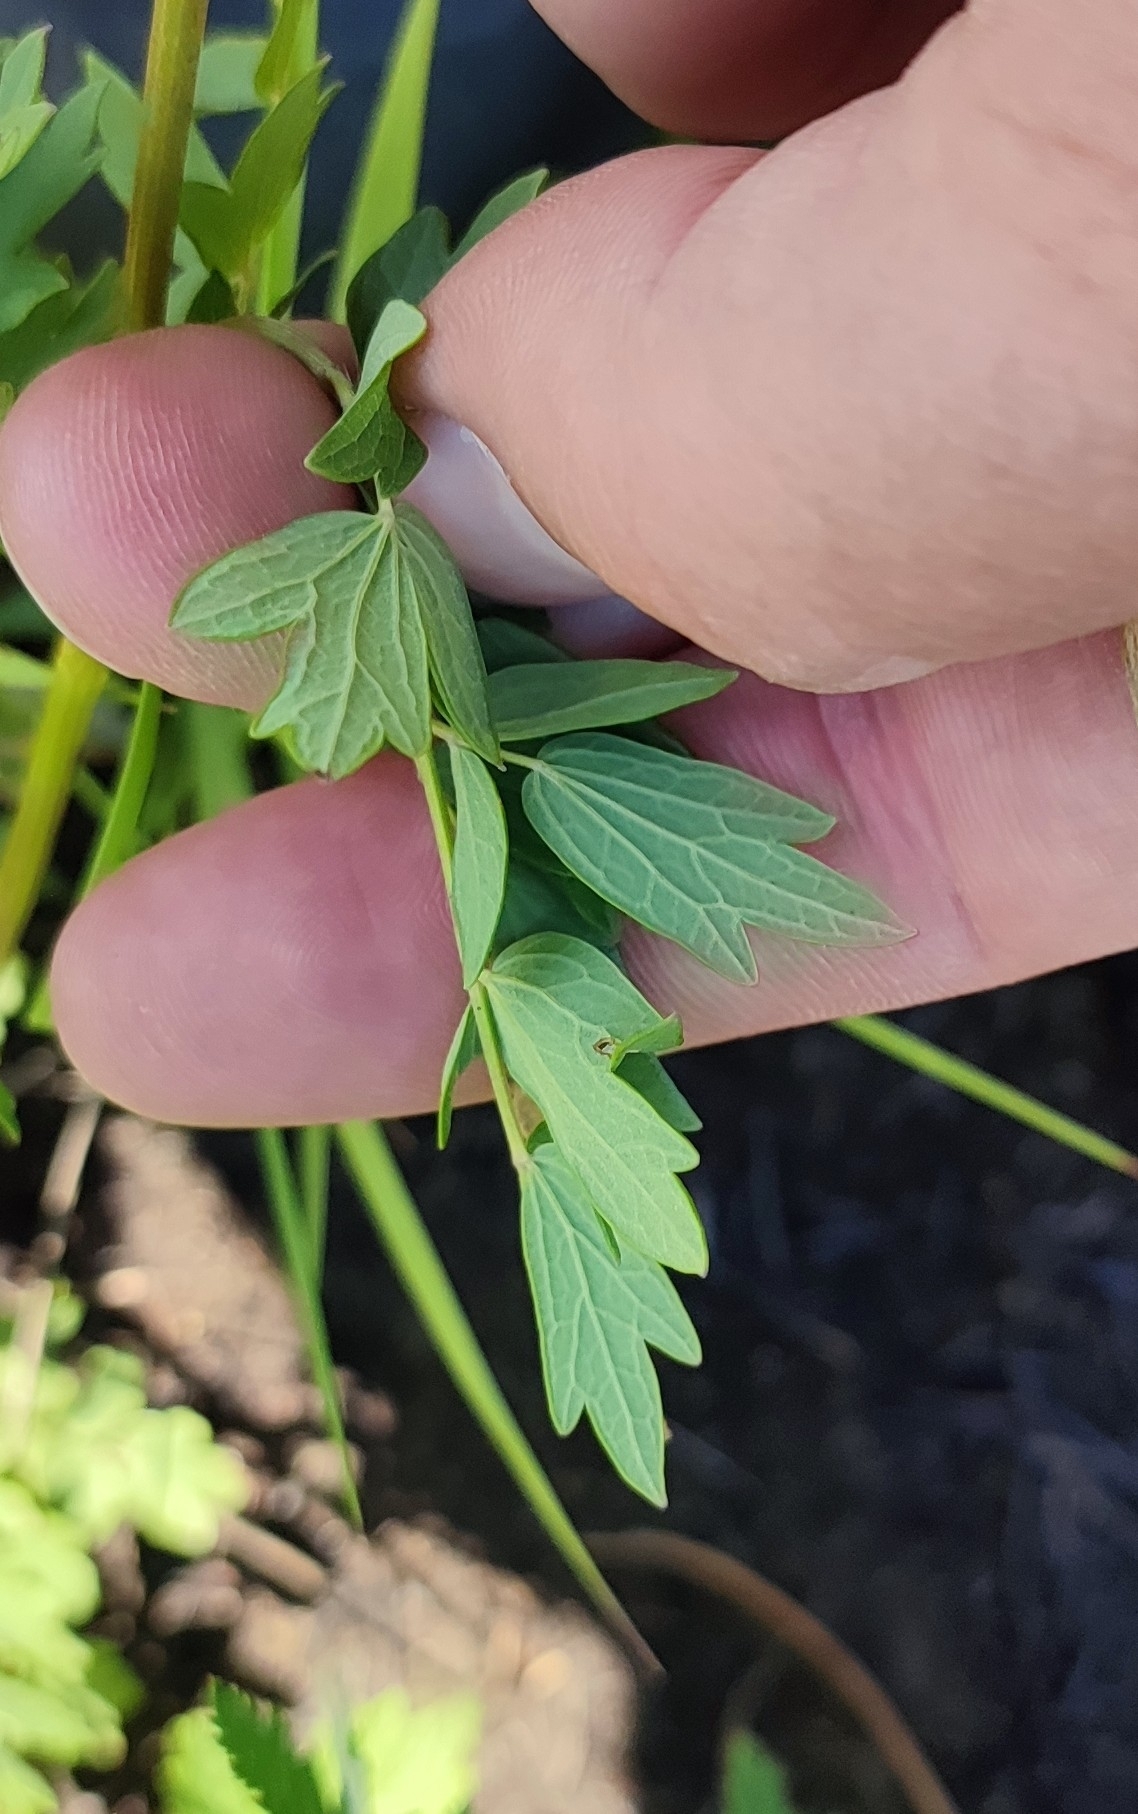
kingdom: Plantae
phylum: Tracheophyta
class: Magnoliopsida
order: Ranunculales
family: Ranunculaceae
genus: Thalictrum
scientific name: Thalictrum simplex
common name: Small meadow-rue
